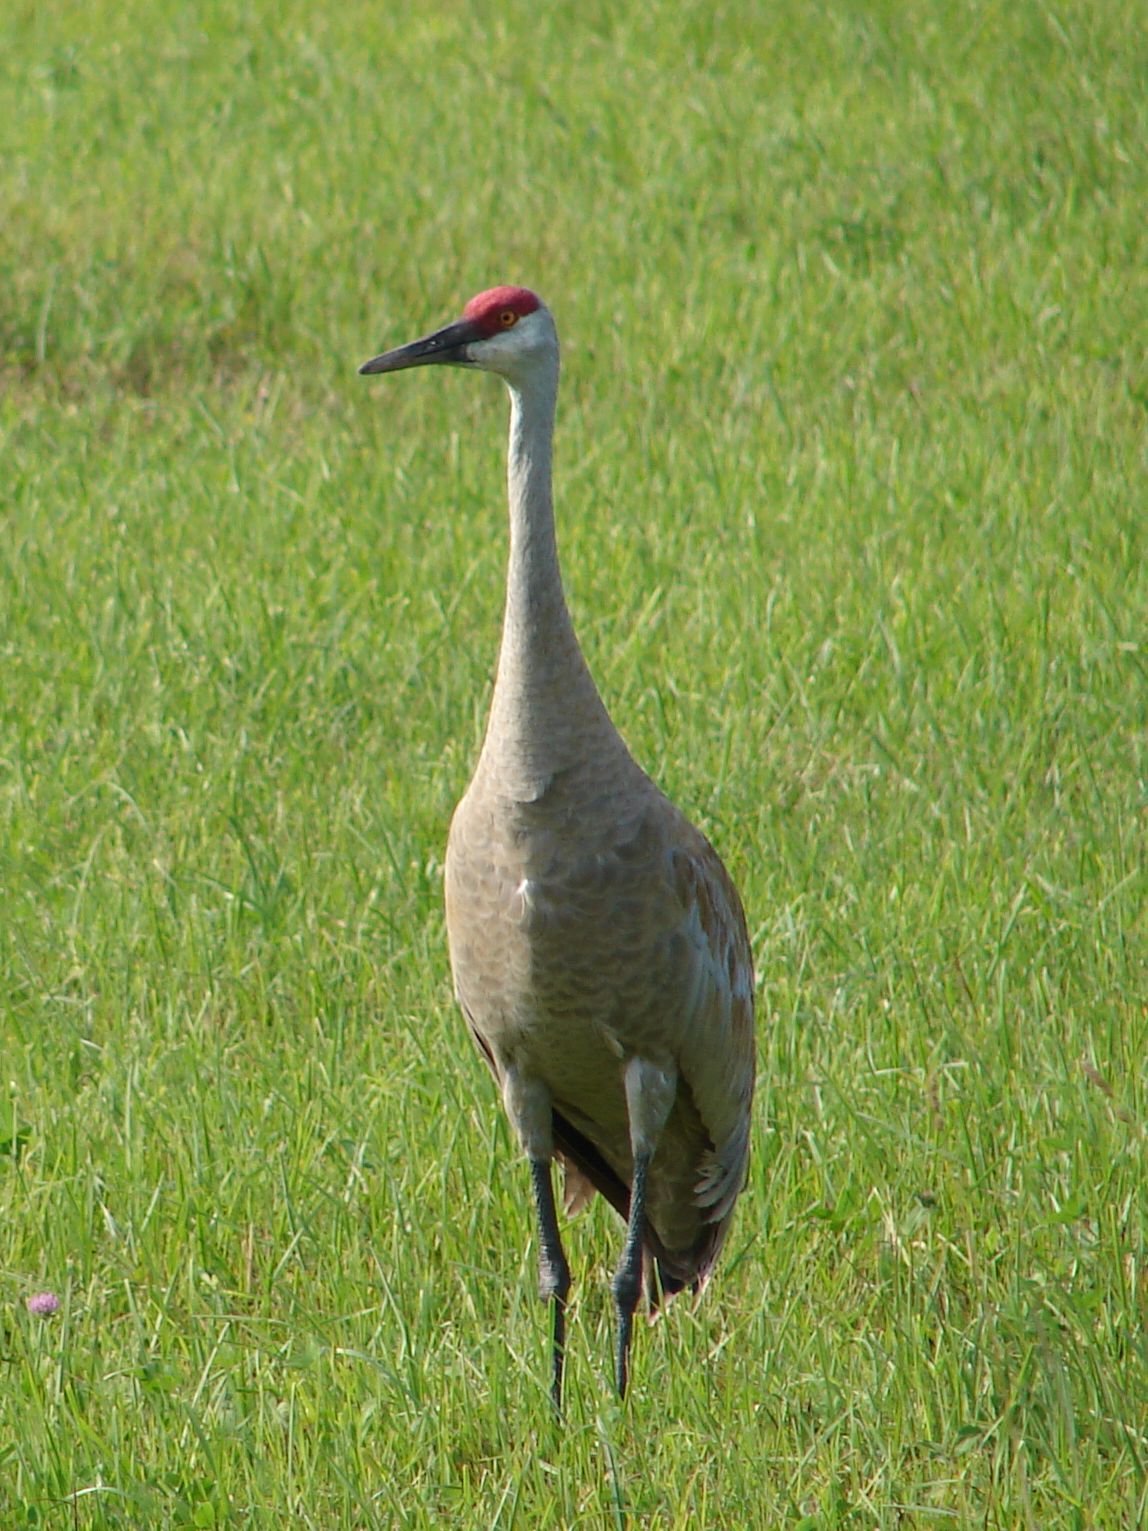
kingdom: Animalia
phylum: Chordata
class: Aves
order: Gruiformes
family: Gruidae
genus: Grus
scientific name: Grus canadensis
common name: Sandhill crane
